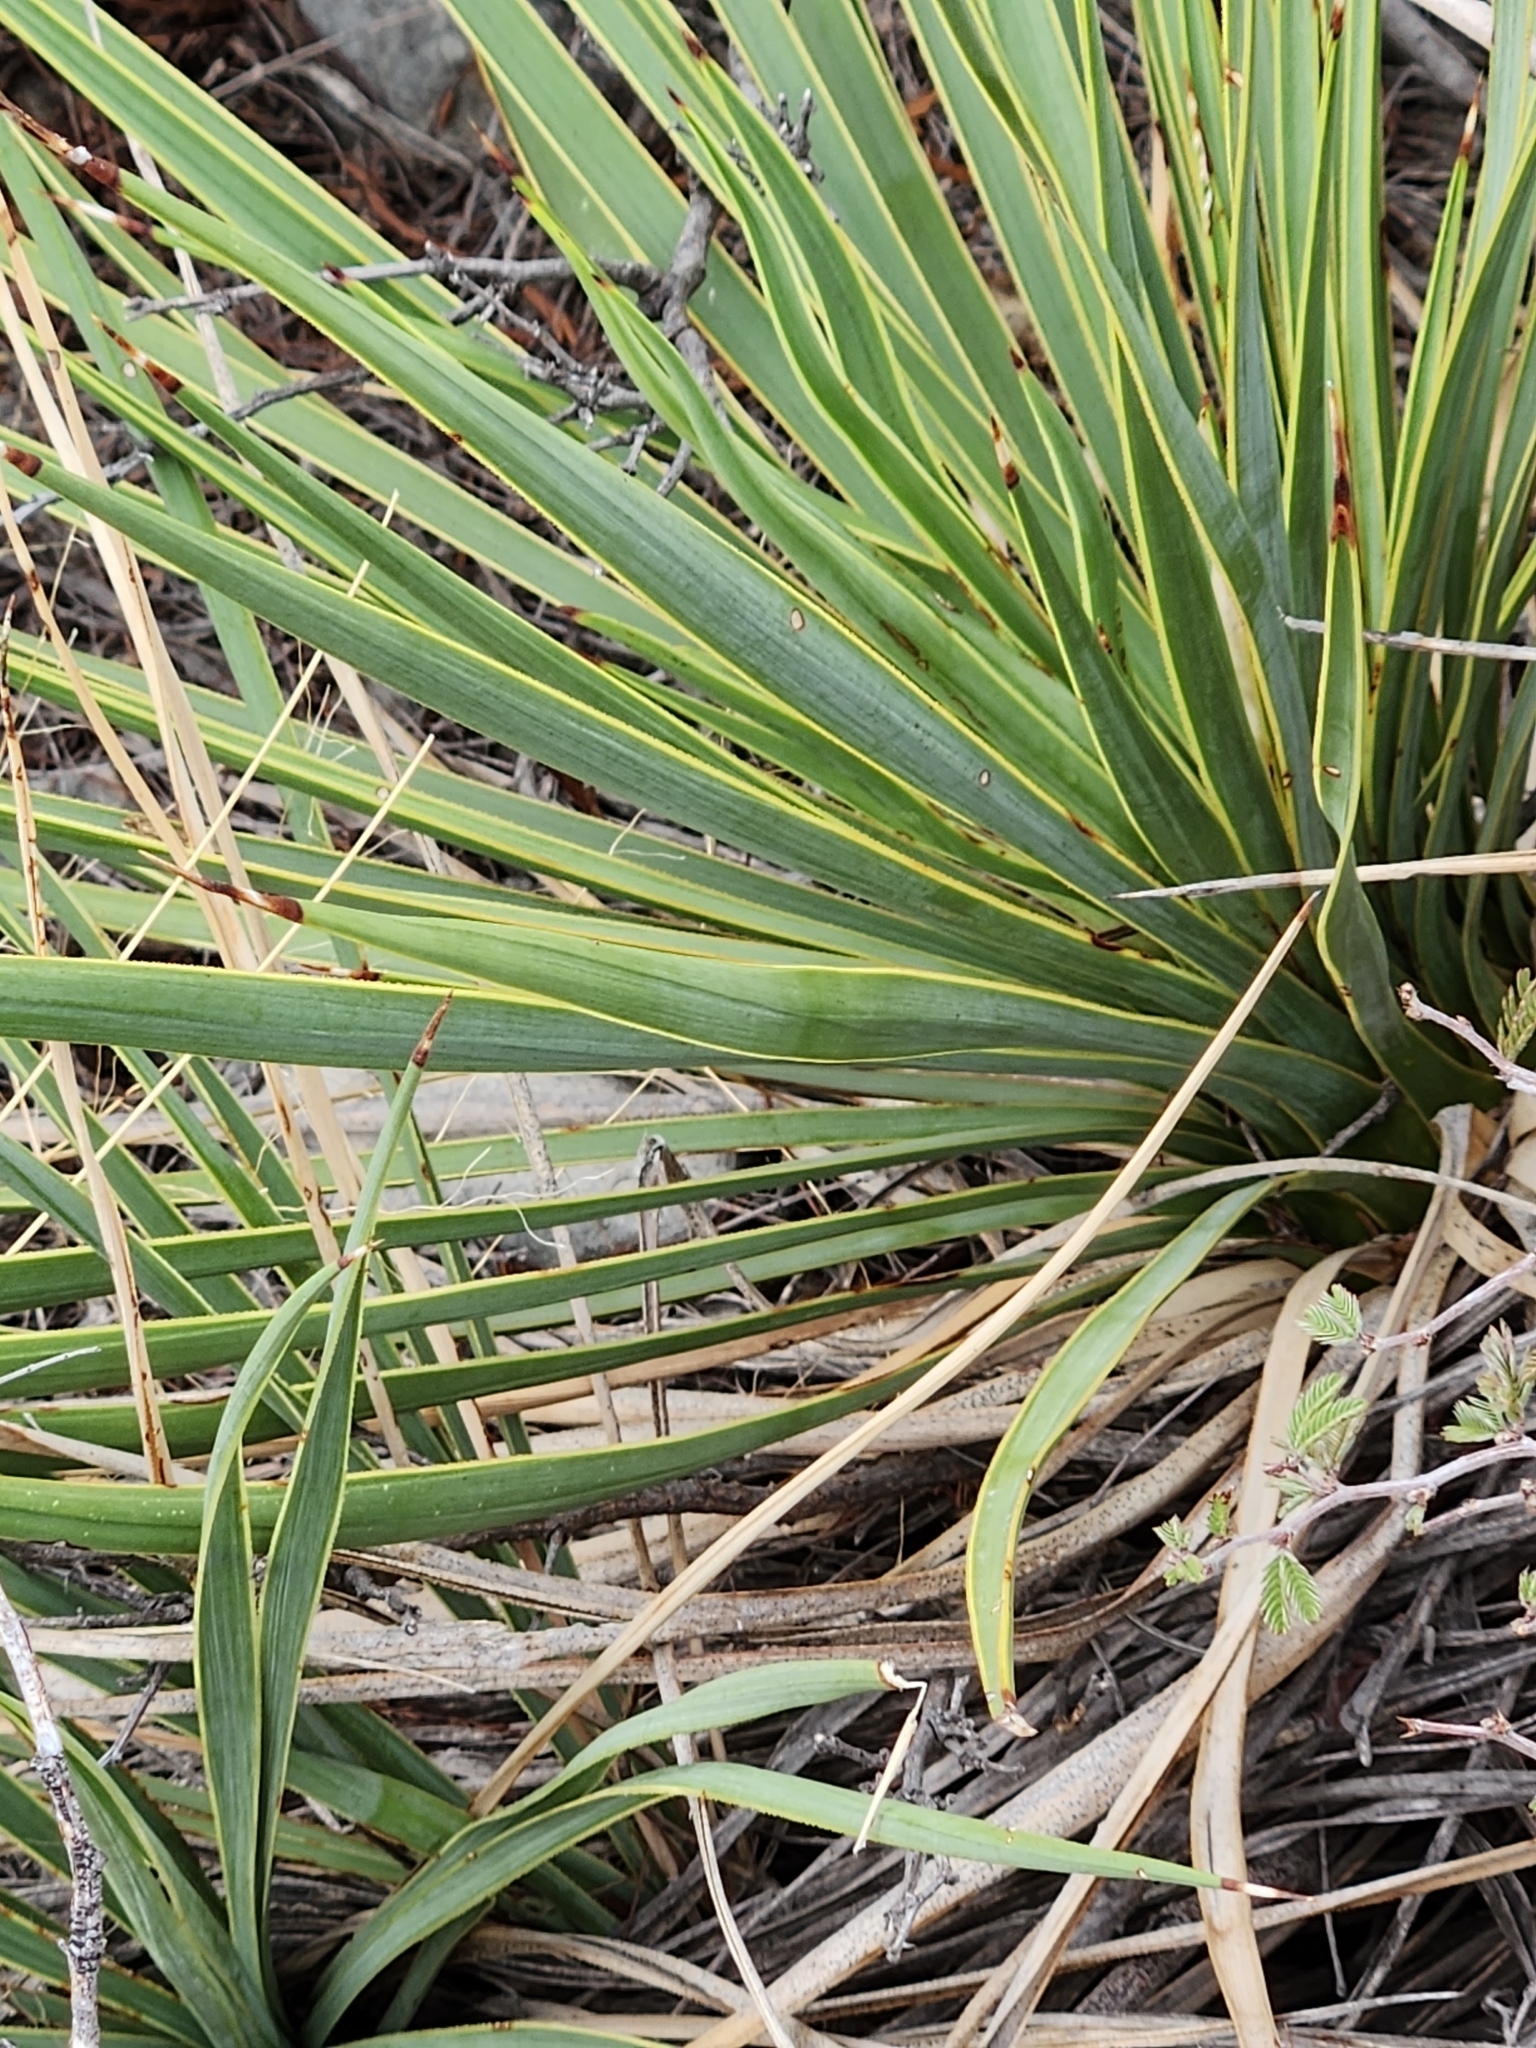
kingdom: Plantae
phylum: Tracheophyta
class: Liliopsida
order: Asparagales
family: Asparagaceae
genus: Yucca
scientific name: Yucca thompsoniana
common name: Trans-pecos yucca
